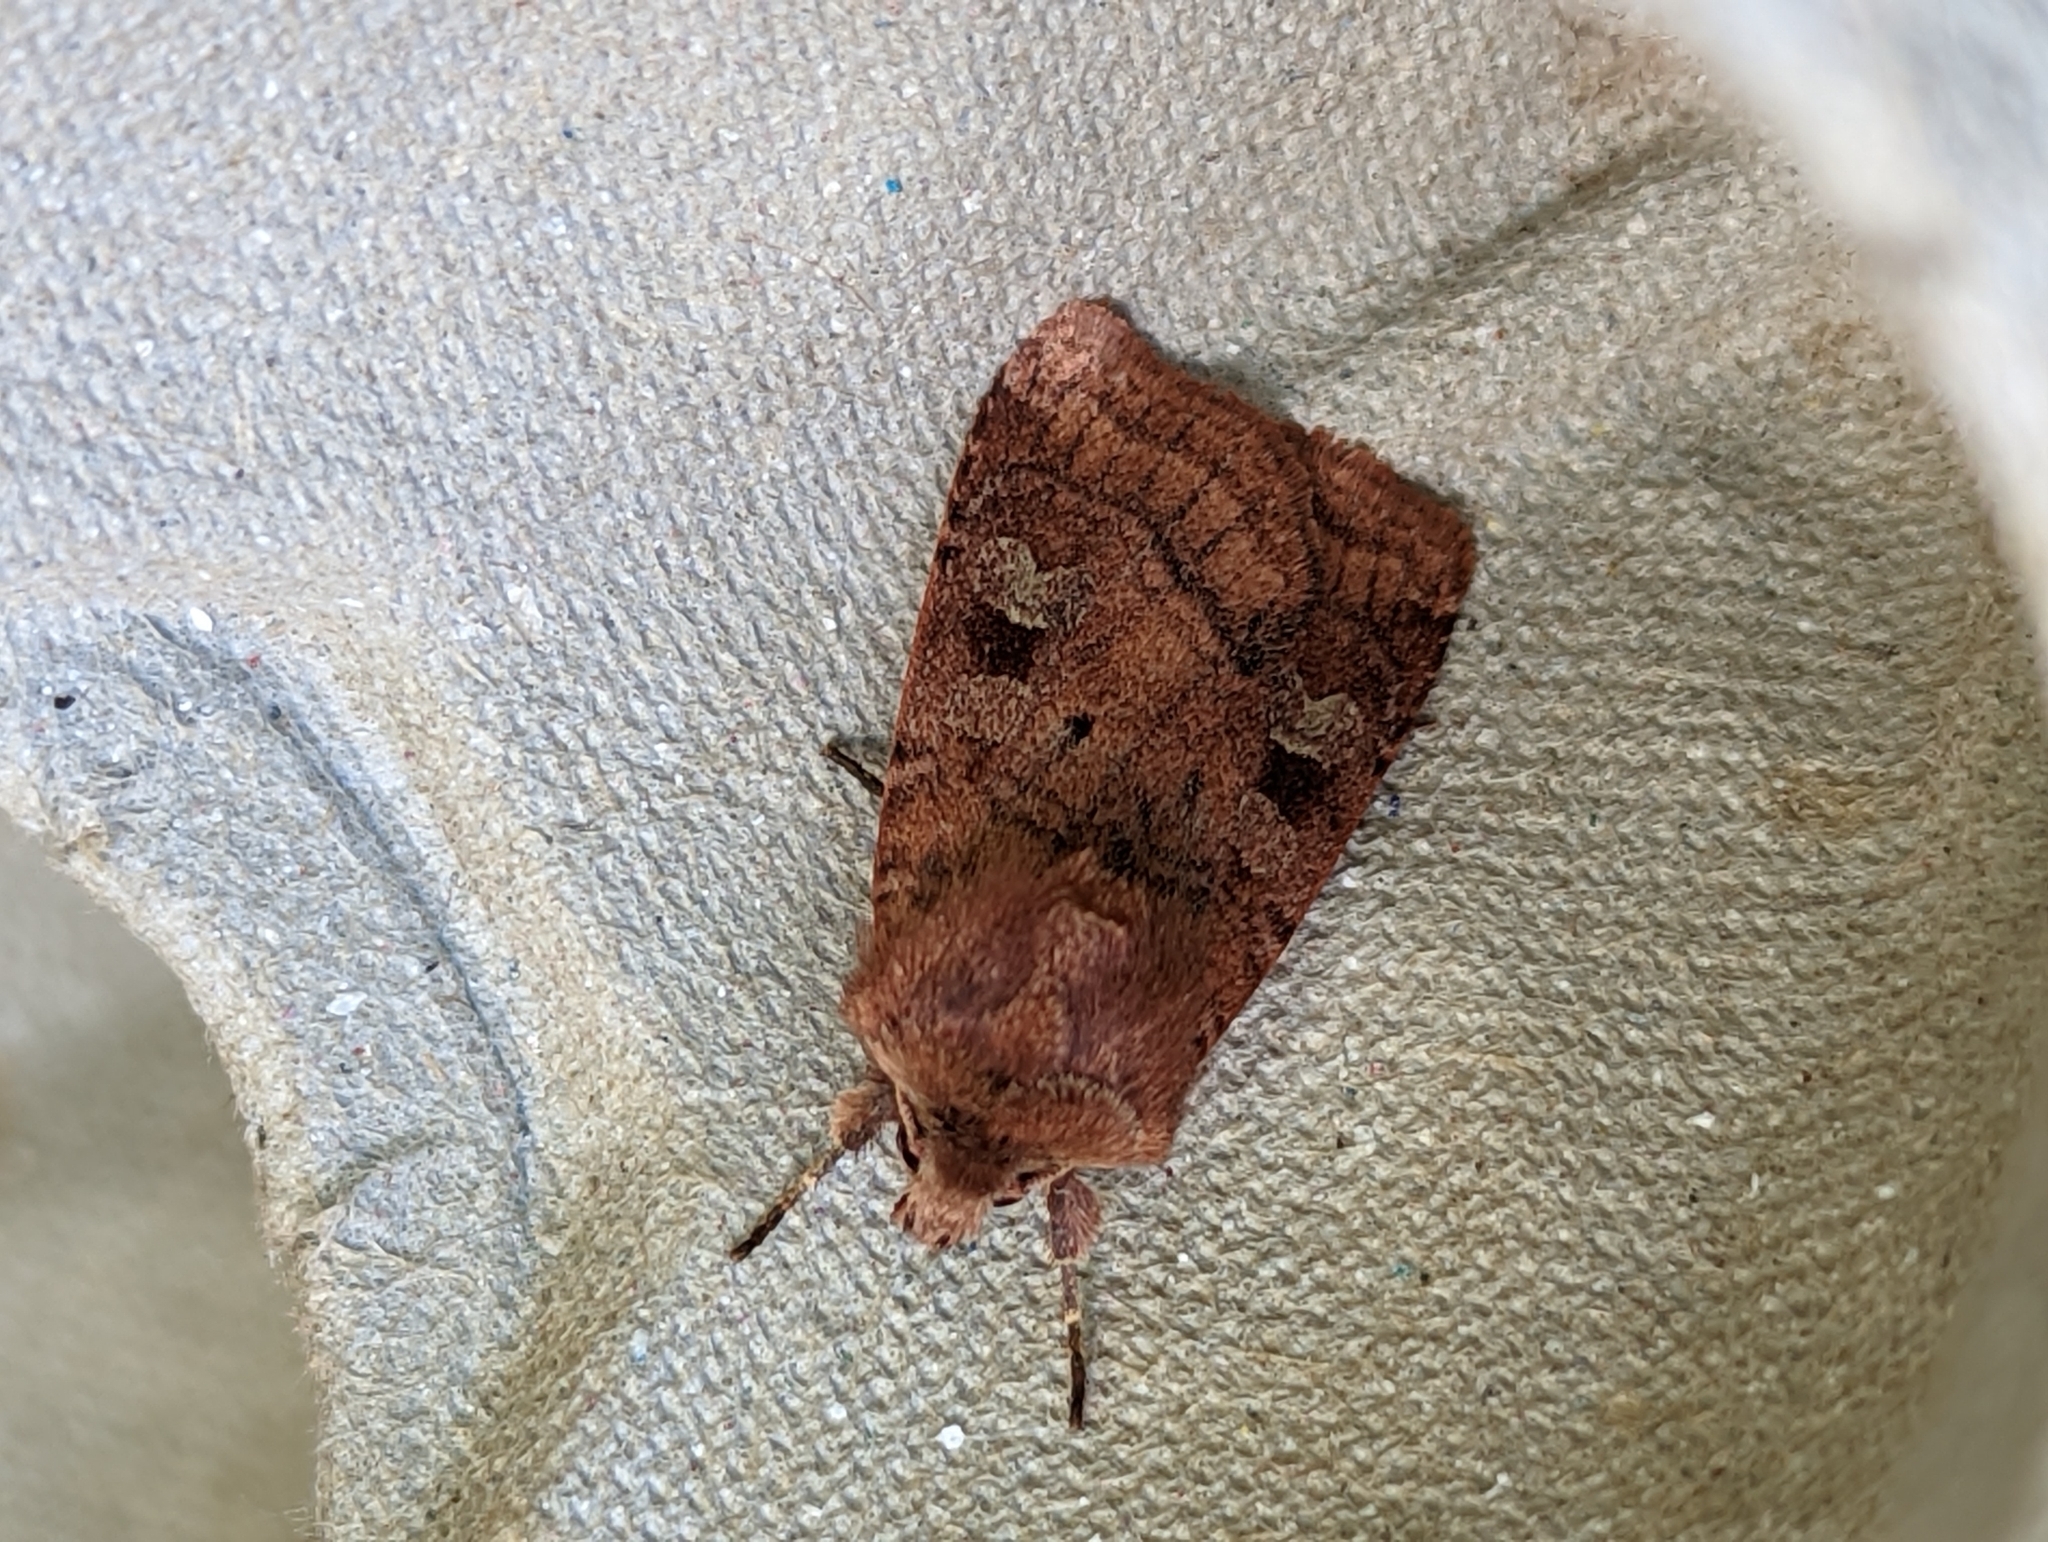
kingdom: Animalia
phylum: Arthropoda
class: Insecta
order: Lepidoptera
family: Noctuidae
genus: Diarsia
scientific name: Diarsia rubi
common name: Small square-spot
